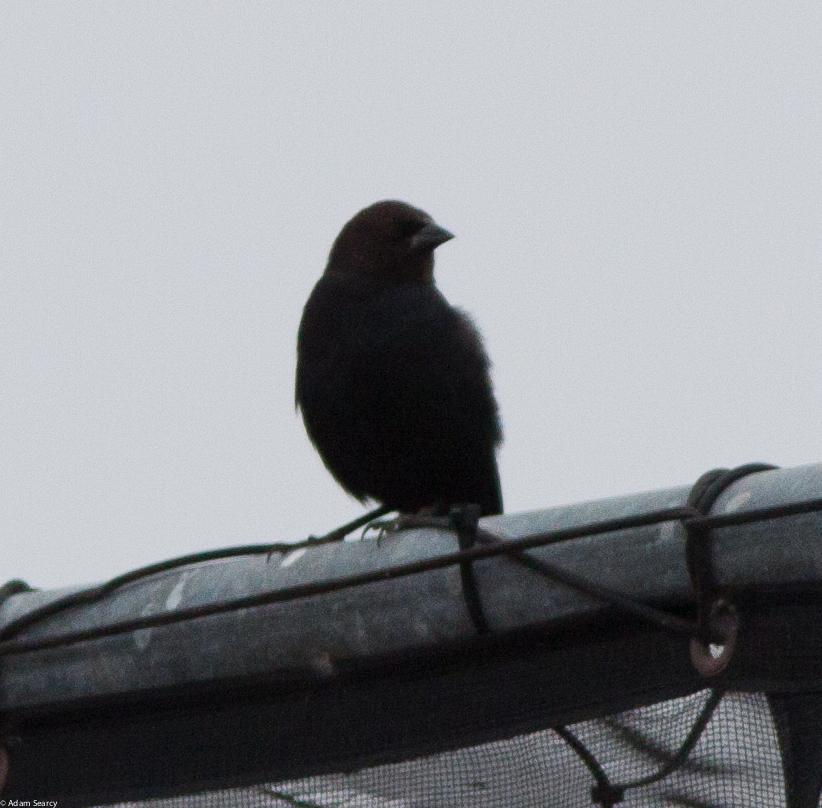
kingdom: Animalia
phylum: Chordata
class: Aves
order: Passeriformes
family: Icteridae
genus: Molothrus
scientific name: Molothrus ater
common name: Brown-headed cowbird
